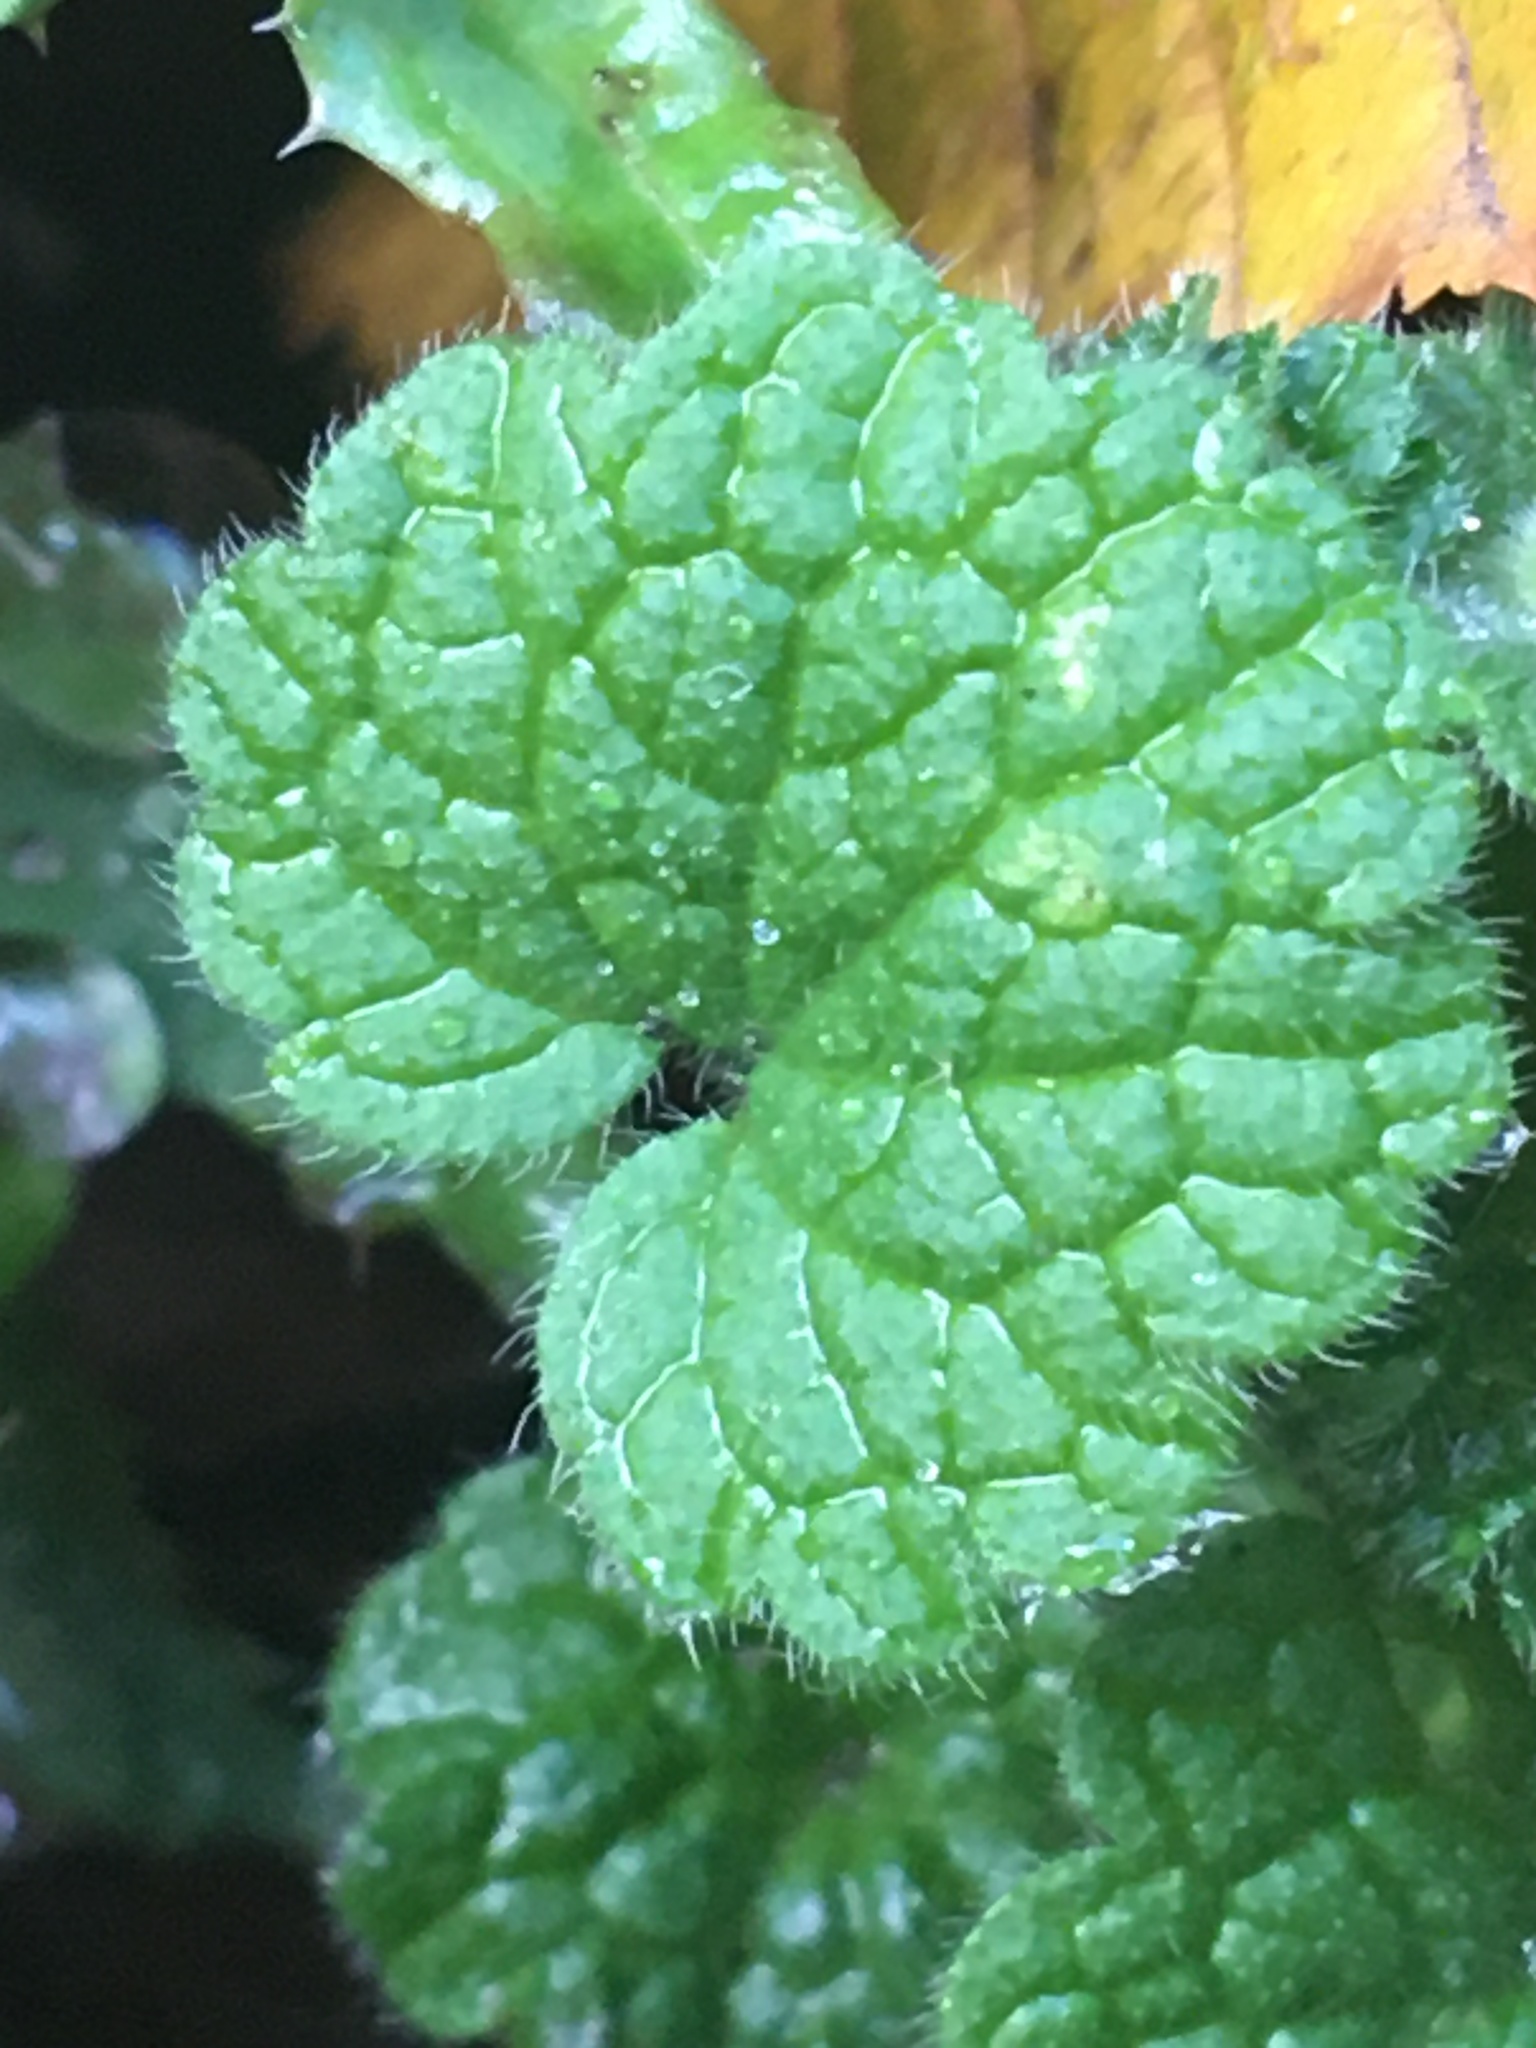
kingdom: Plantae
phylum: Tracheophyta
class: Magnoliopsida
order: Lamiales
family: Lamiaceae
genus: Glechoma
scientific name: Glechoma hederacea
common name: Ground ivy
